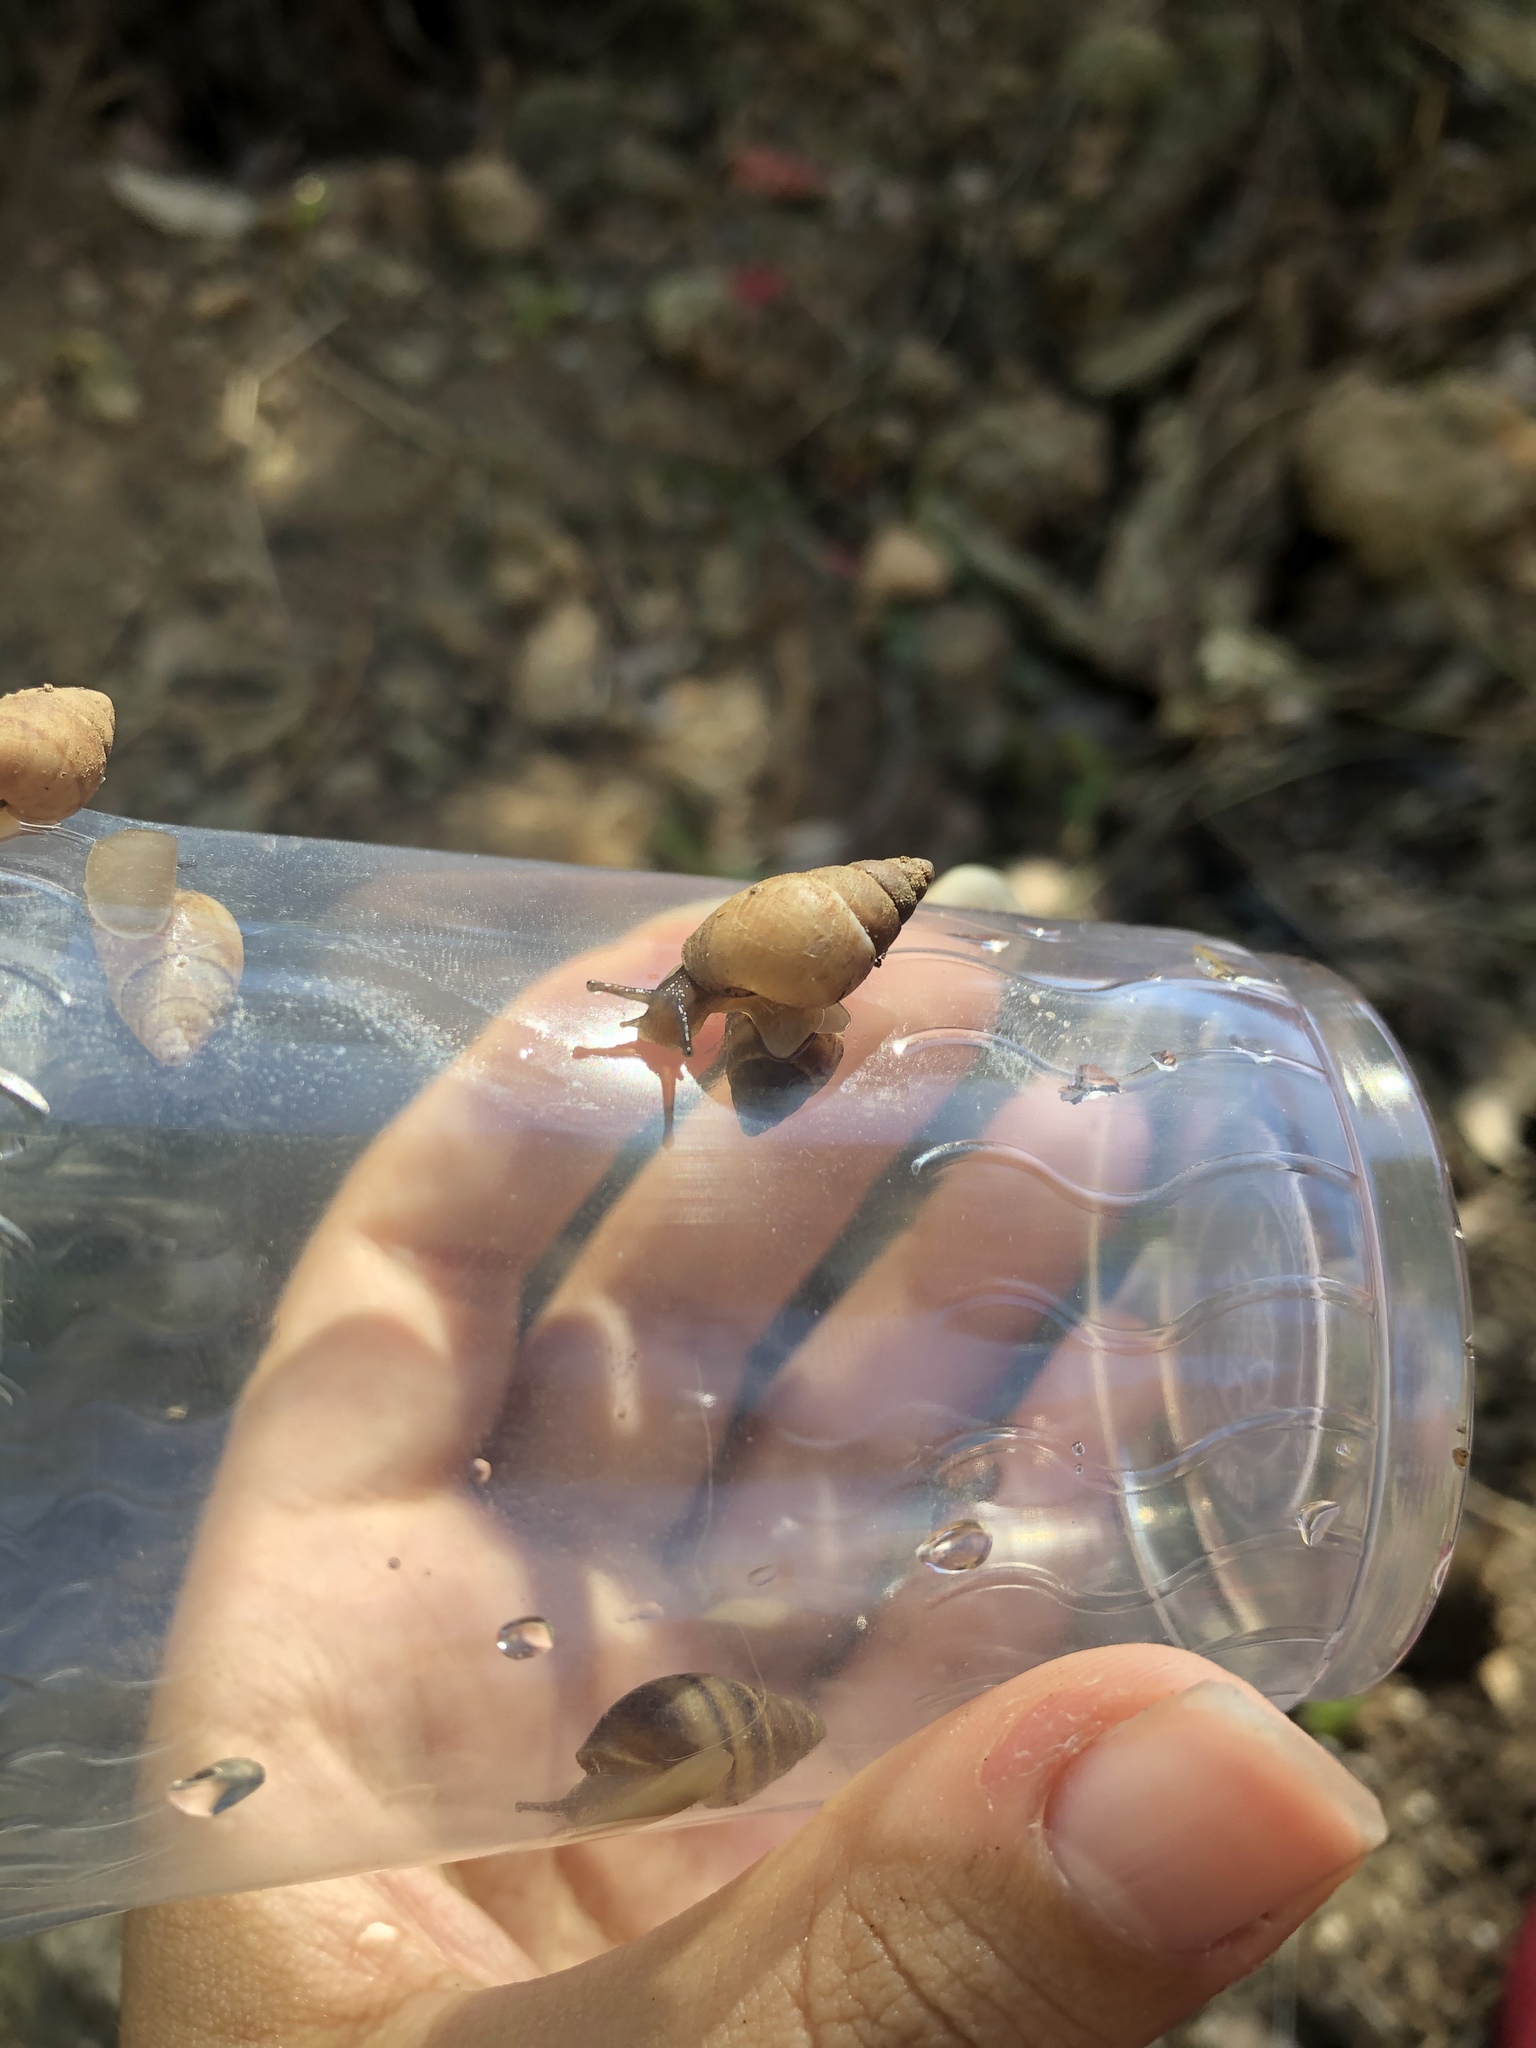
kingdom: Animalia
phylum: Mollusca
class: Gastropoda
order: Stylommatophora
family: Bulimulidae
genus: Bulimulus
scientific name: Bulimulus guadalupensis
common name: West indian bulimulus
